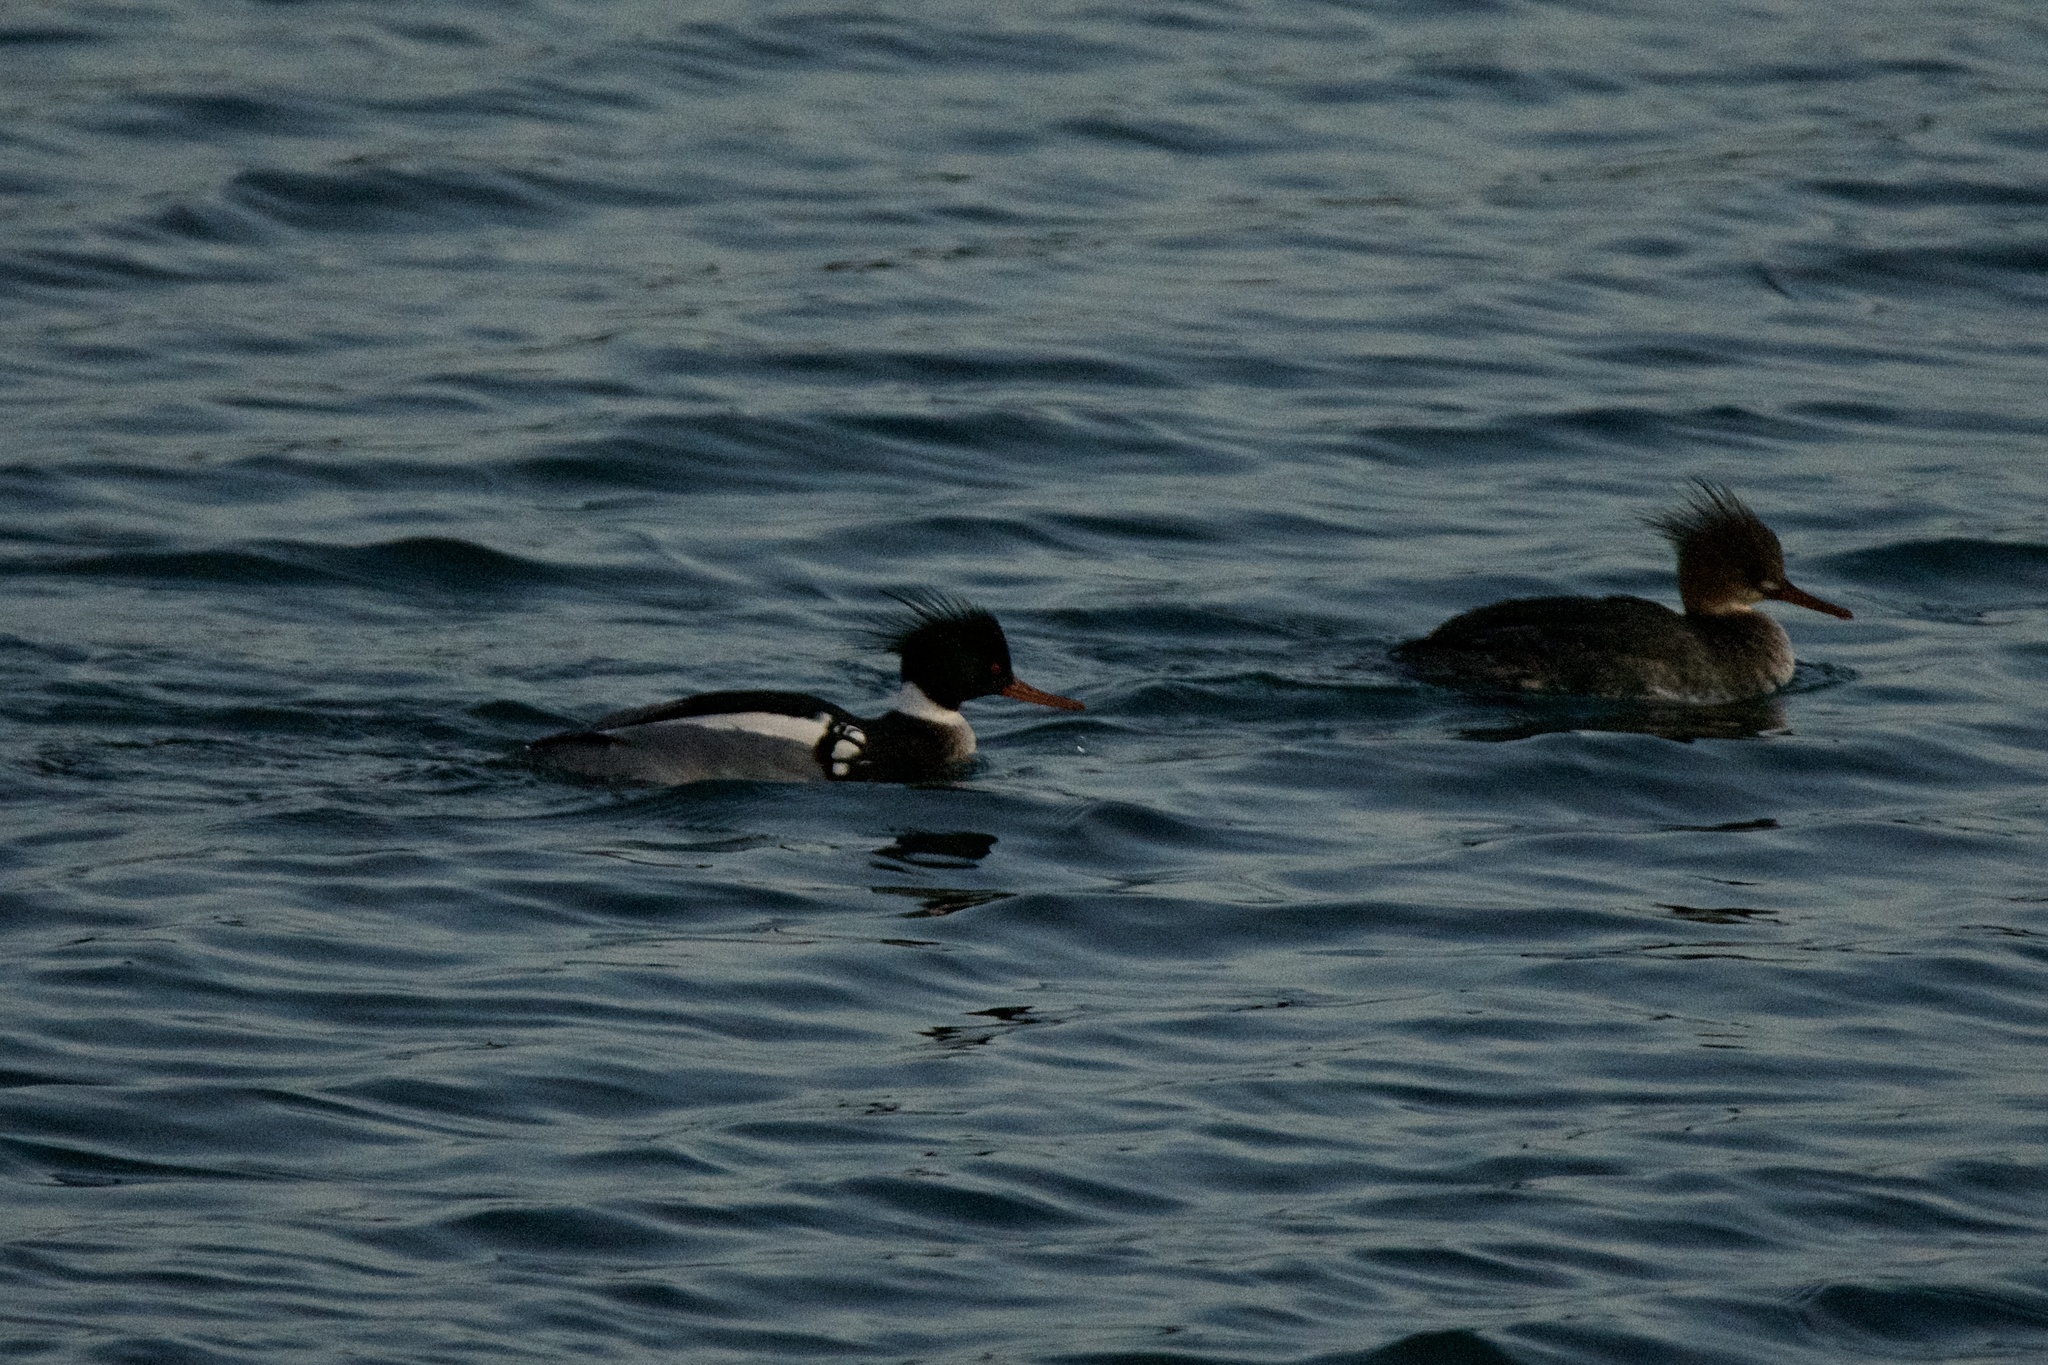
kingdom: Animalia
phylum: Chordata
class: Aves
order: Anseriformes
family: Anatidae
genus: Mergus
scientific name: Mergus serrator
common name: Red-breasted merganser
